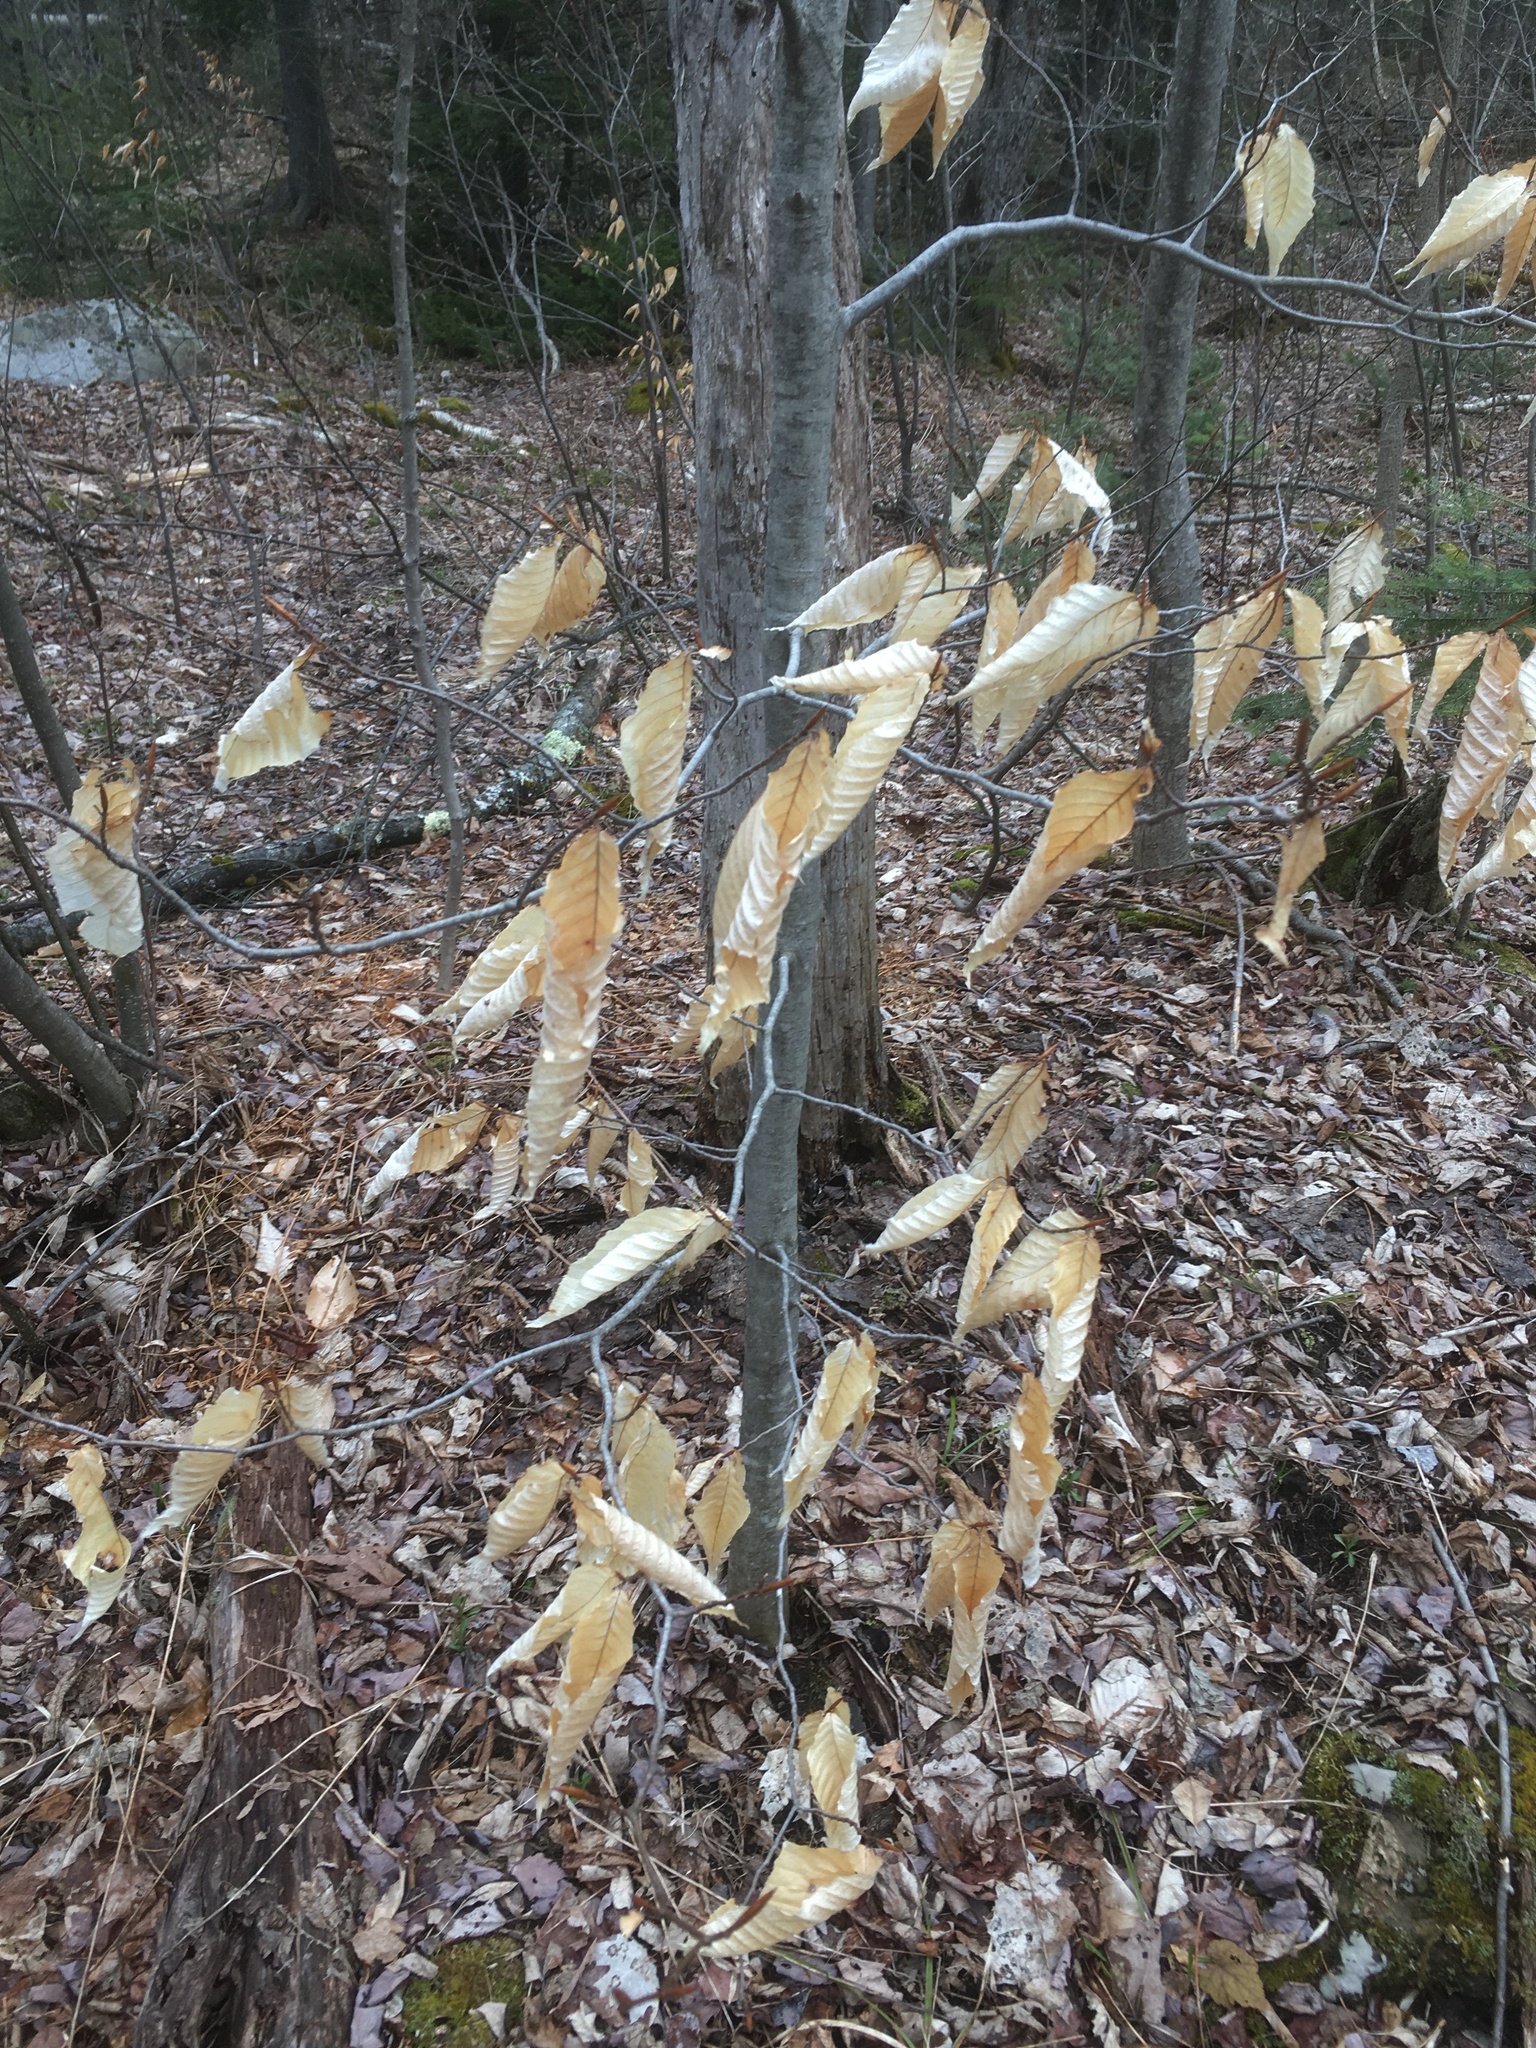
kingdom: Plantae
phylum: Tracheophyta
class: Magnoliopsida
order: Fagales
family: Fagaceae
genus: Fagus
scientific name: Fagus grandifolia
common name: American beech
